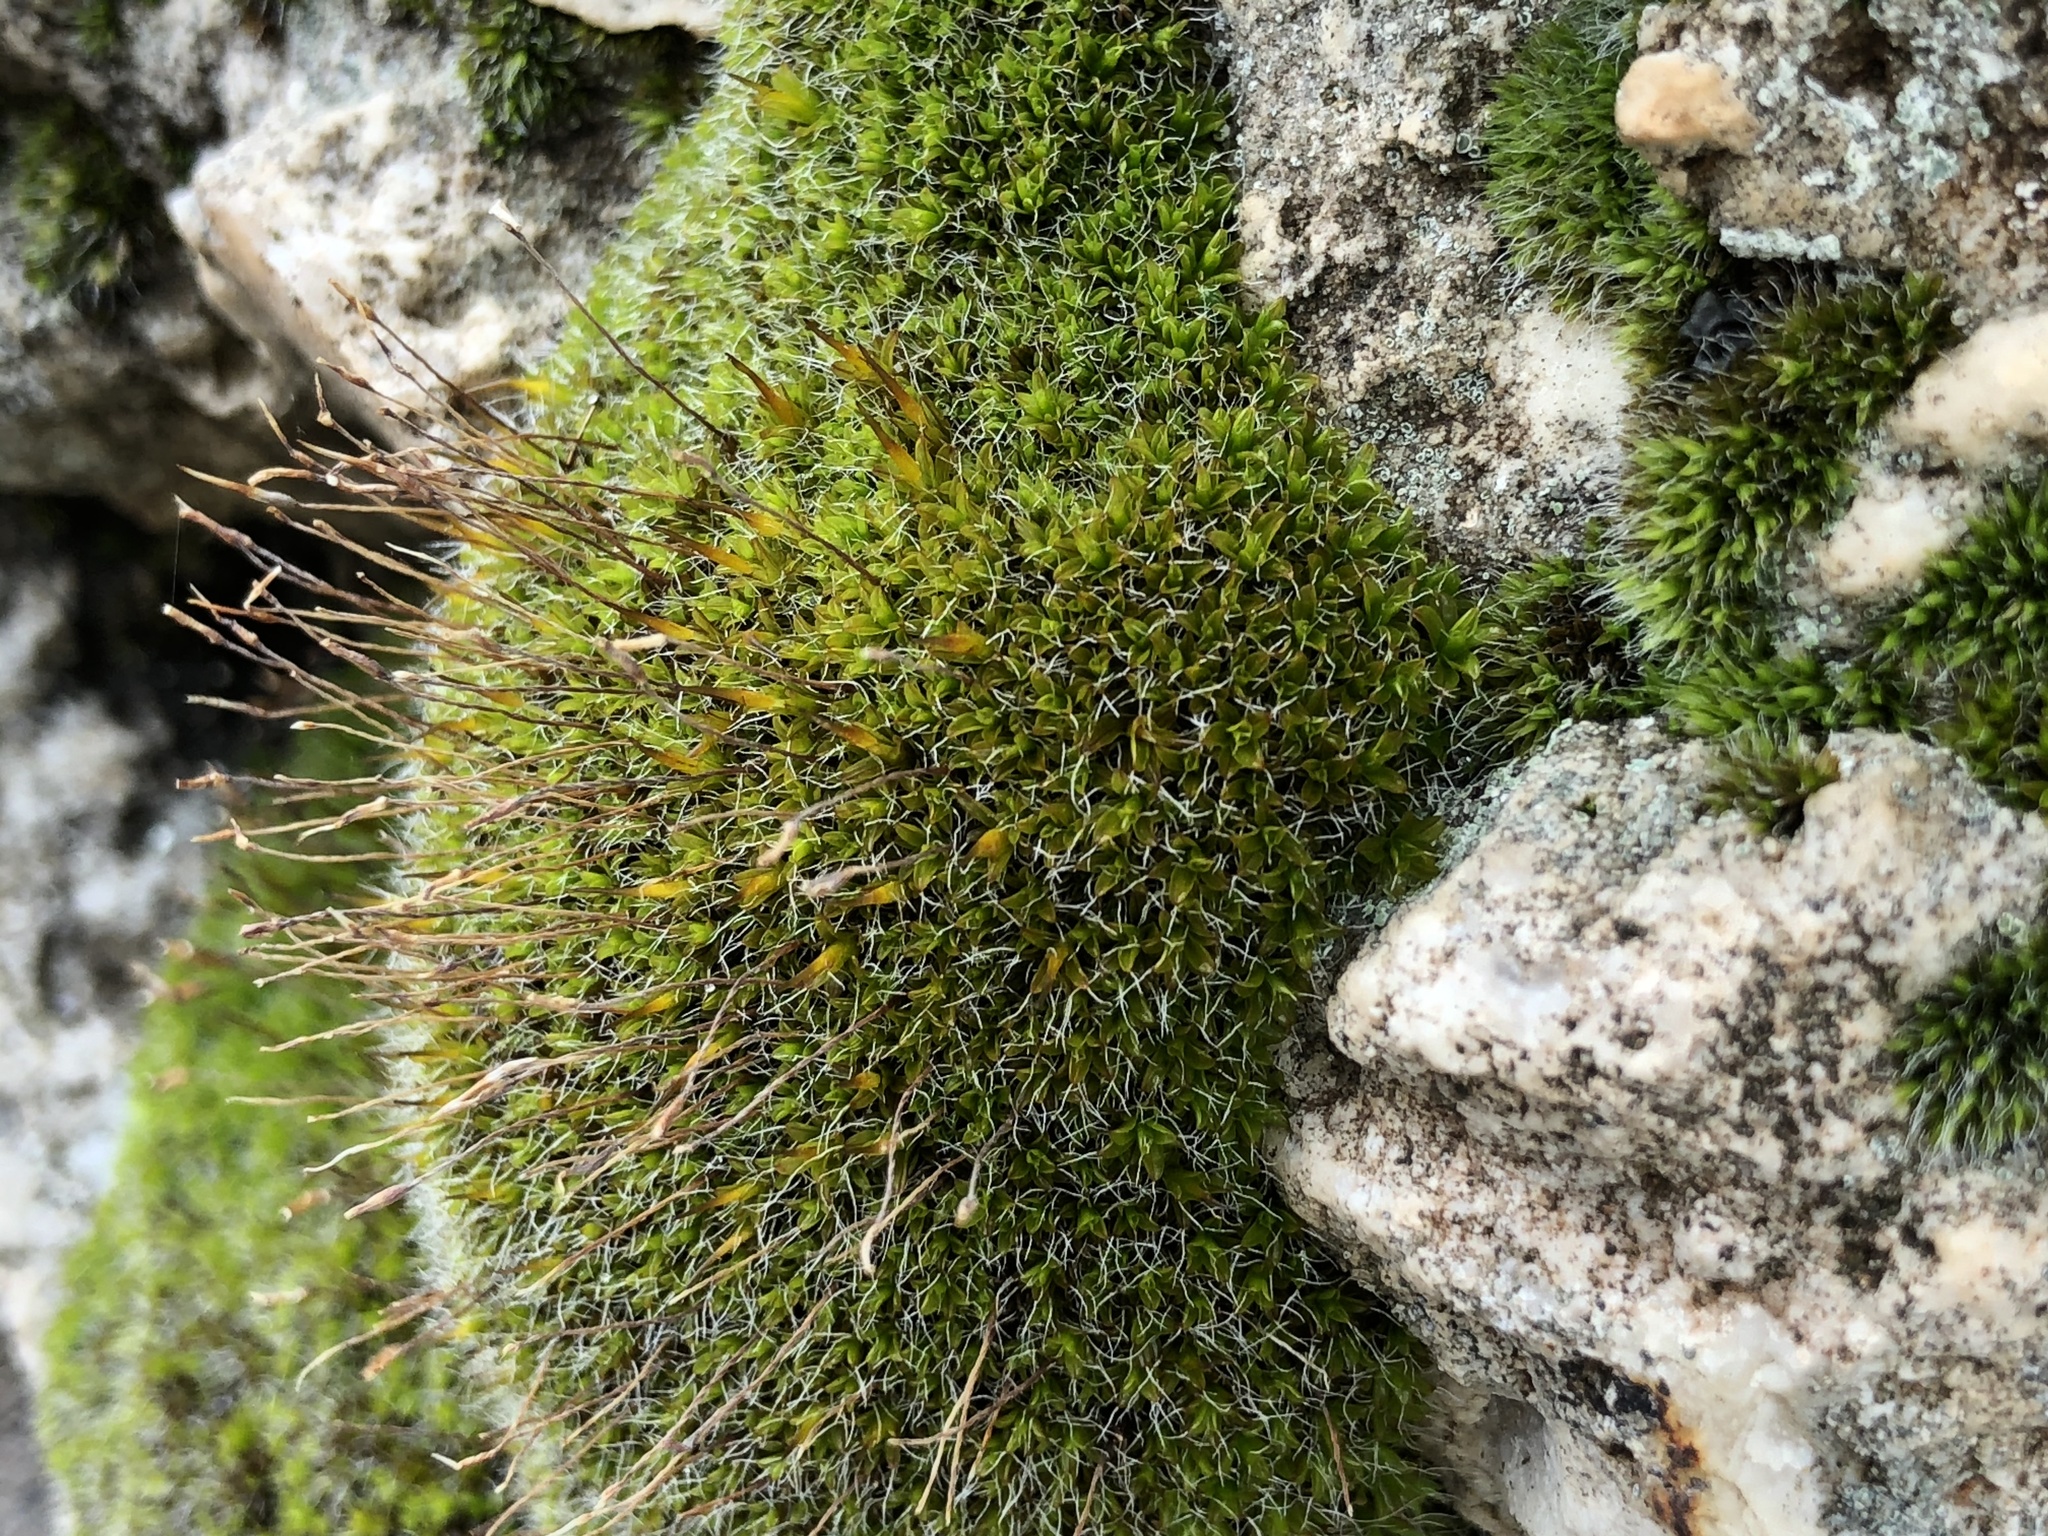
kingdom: Plantae
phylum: Bryophyta
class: Bryopsida
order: Pottiales
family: Pottiaceae
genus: Tortula
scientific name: Tortula muralis
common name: Wall screw-moss
